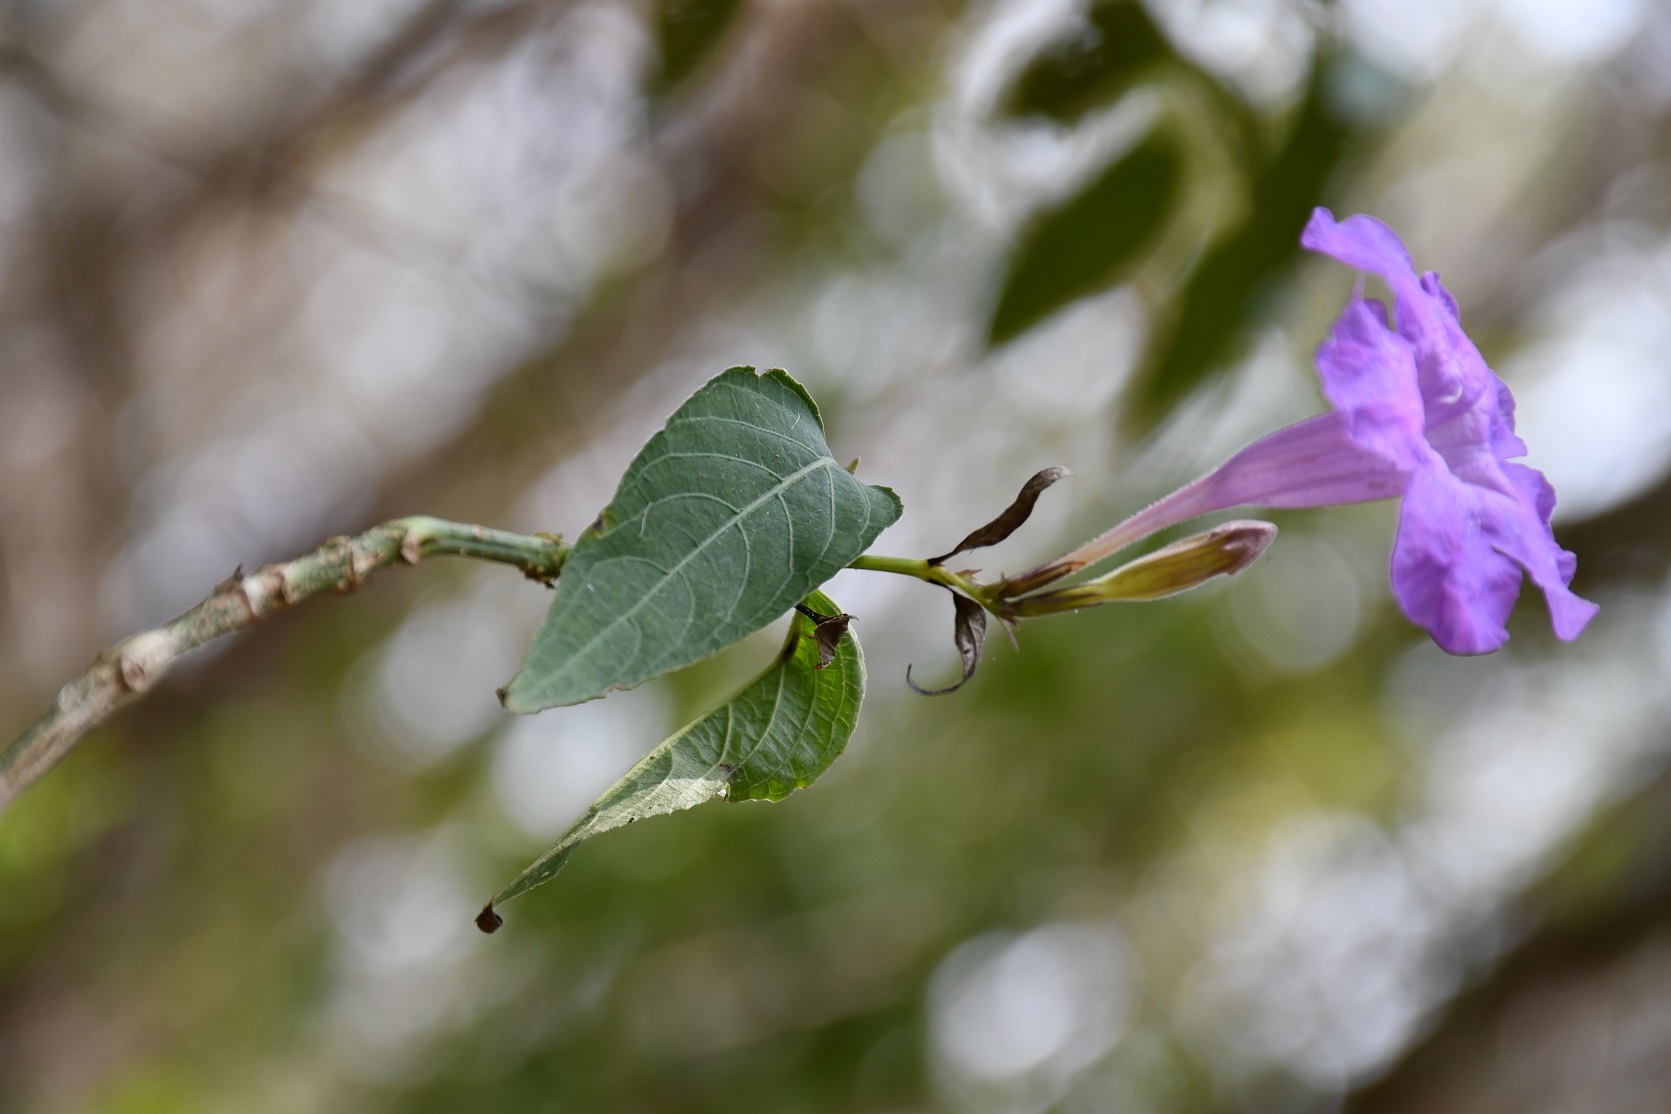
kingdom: Plantae
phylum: Tracheophyta
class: Magnoliopsida
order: Lamiales
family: Acanthaceae
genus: Ruellia
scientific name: Ruellia breedlovei
